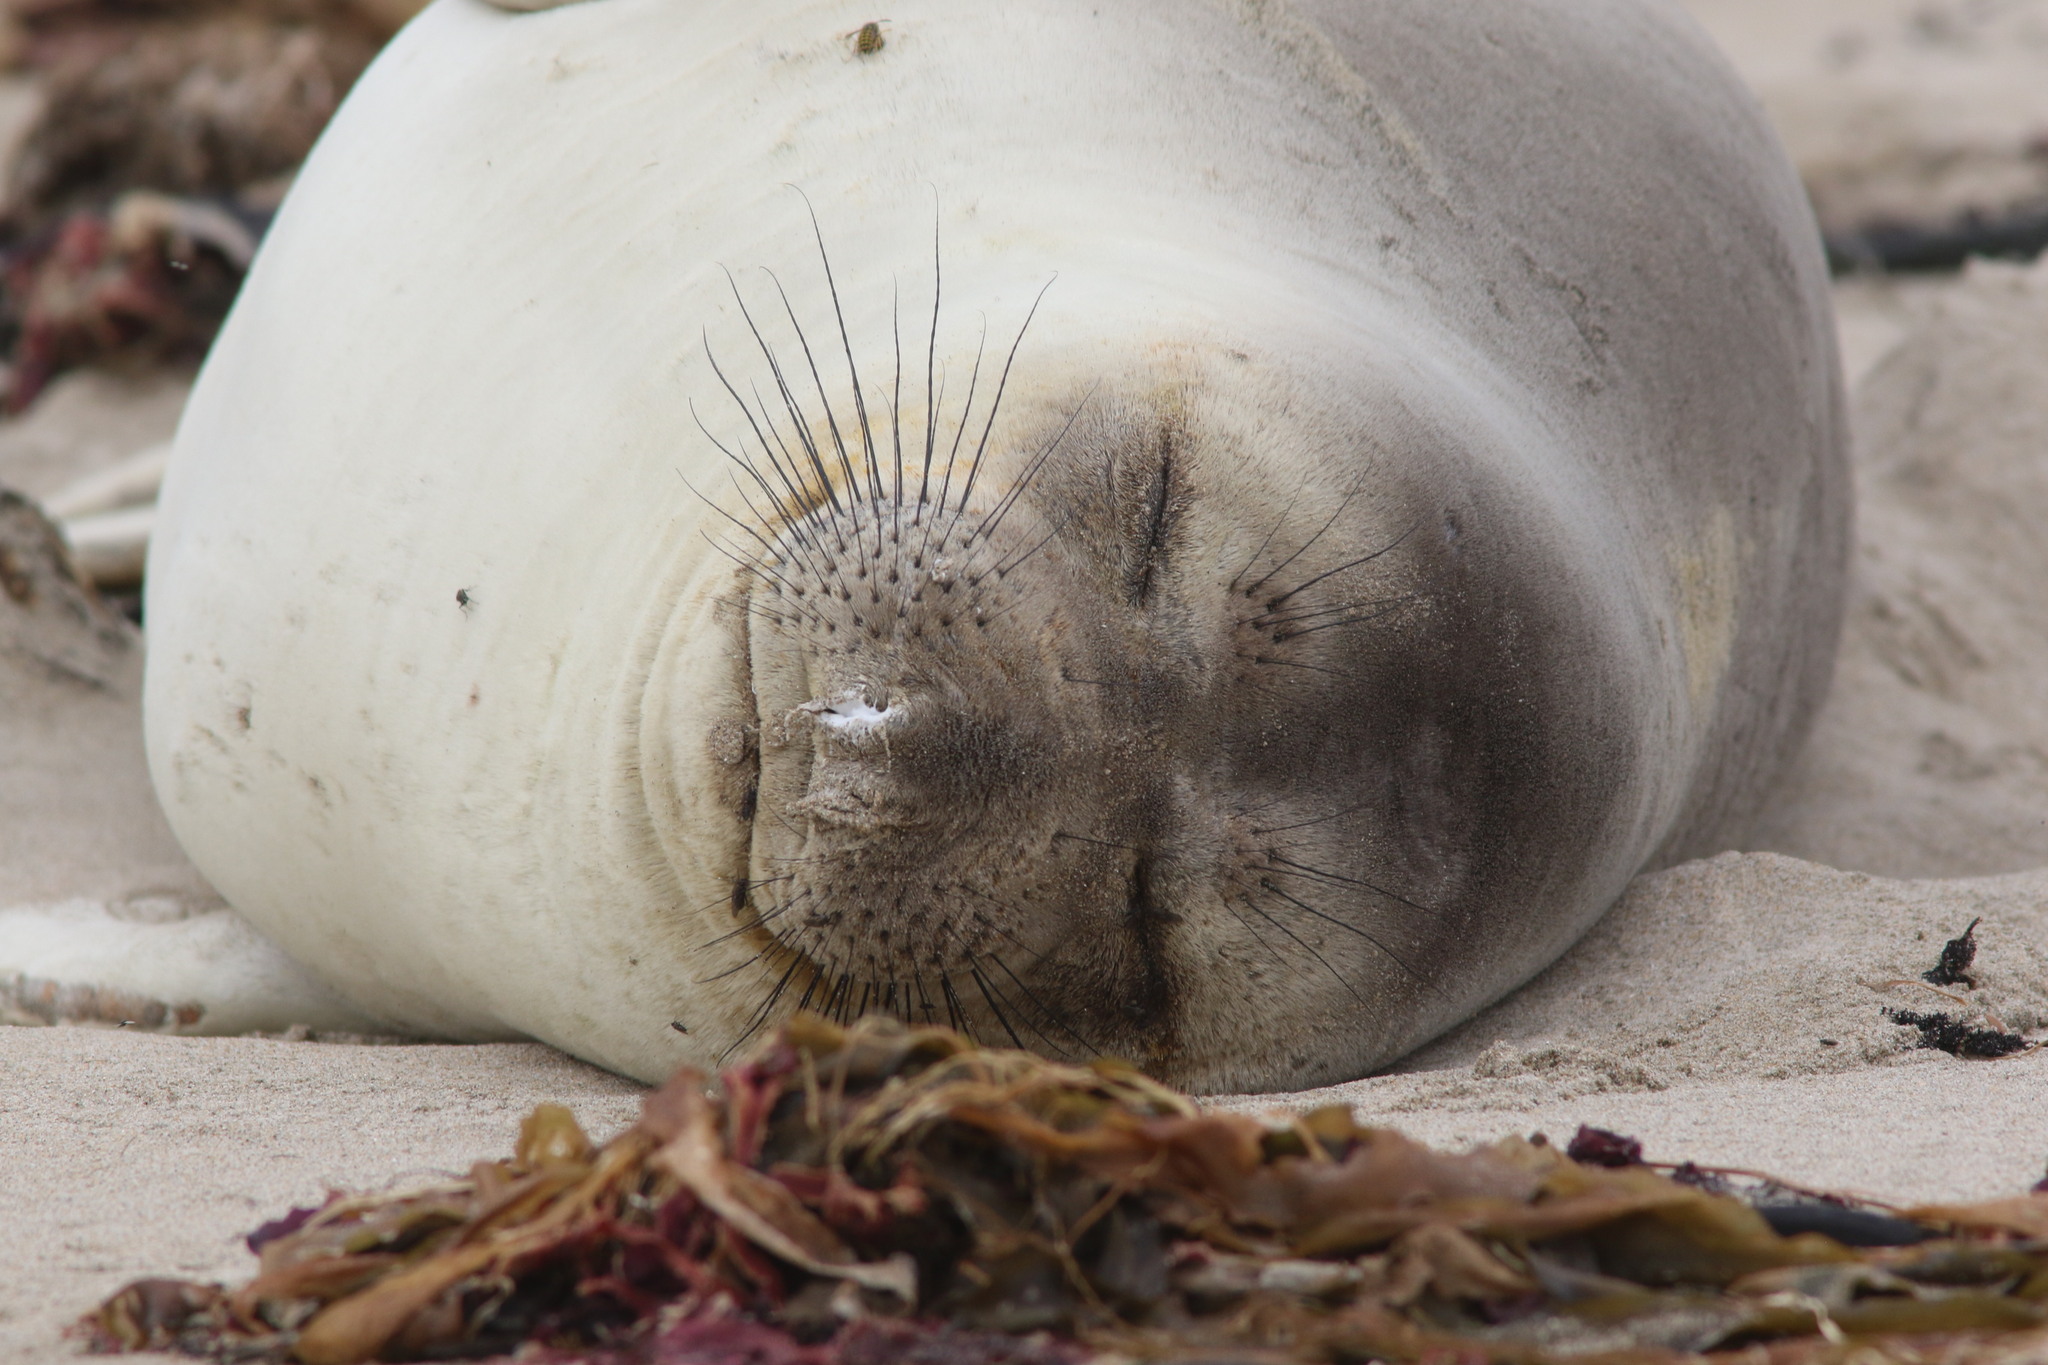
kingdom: Animalia
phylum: Chordata
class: Mammalia
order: Carnivora
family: Phocidae
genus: Mirounga
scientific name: Mirounga angustirostris
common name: Northern elephant seal
